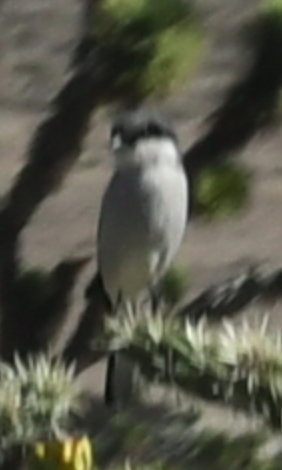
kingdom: Animalia
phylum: Chordata
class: Aves
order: Passeriformes
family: Laniidae
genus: Lanius
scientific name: Lanius ludovicianus
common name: Loggerhead shrike
